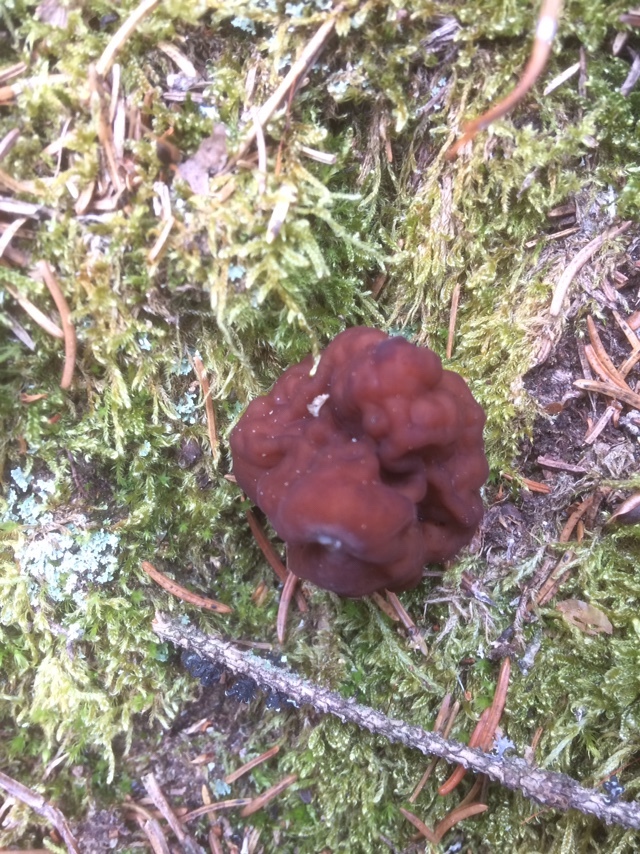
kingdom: Fungi
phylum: Ascomycota
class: Pezizomycetes
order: Pezizales
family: Discinaceae
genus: Gyromitra
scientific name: Gyromitra esculenta
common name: False morel
